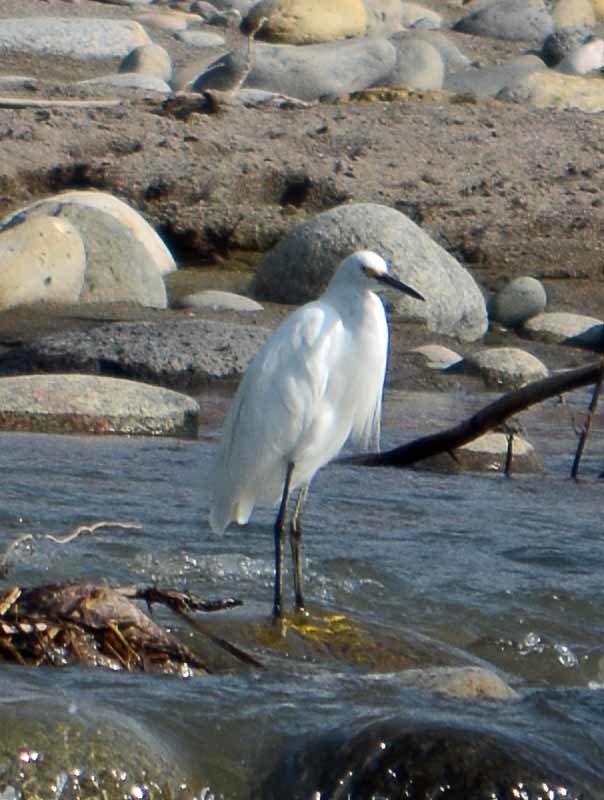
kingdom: Animalia
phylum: Chordata
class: Aves
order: Pelecaniformes
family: Ardeidae
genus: Egretta
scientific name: Egretta thula
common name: Snowy egret
